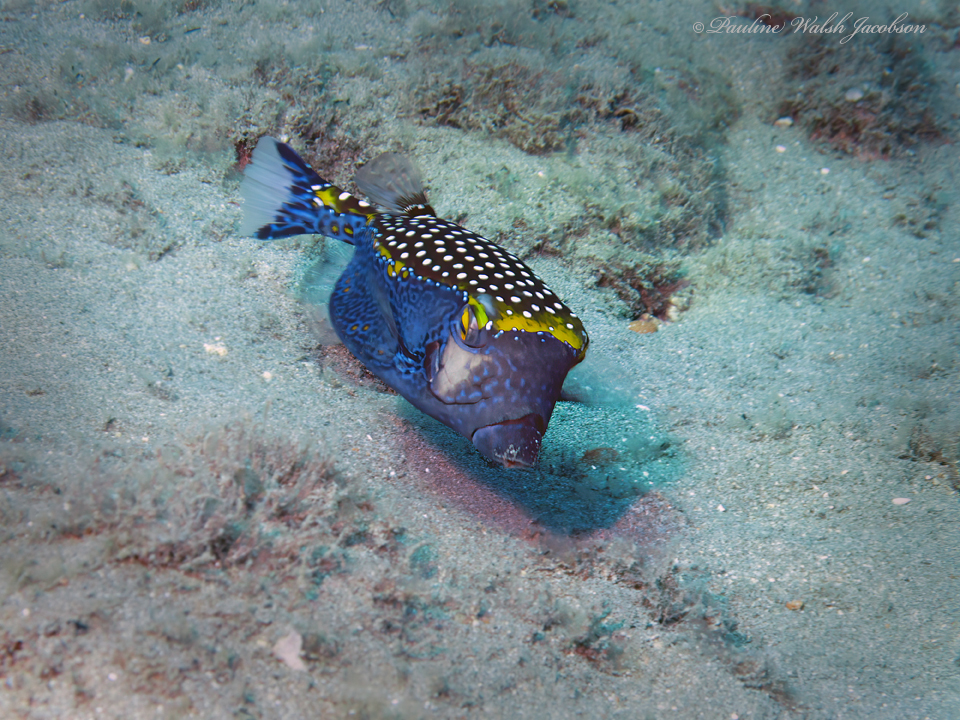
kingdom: Animalia
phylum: Chordata
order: Tetraodontiformes
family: Ostraciidae
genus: Ostracion
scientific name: Ostracion meleagris
